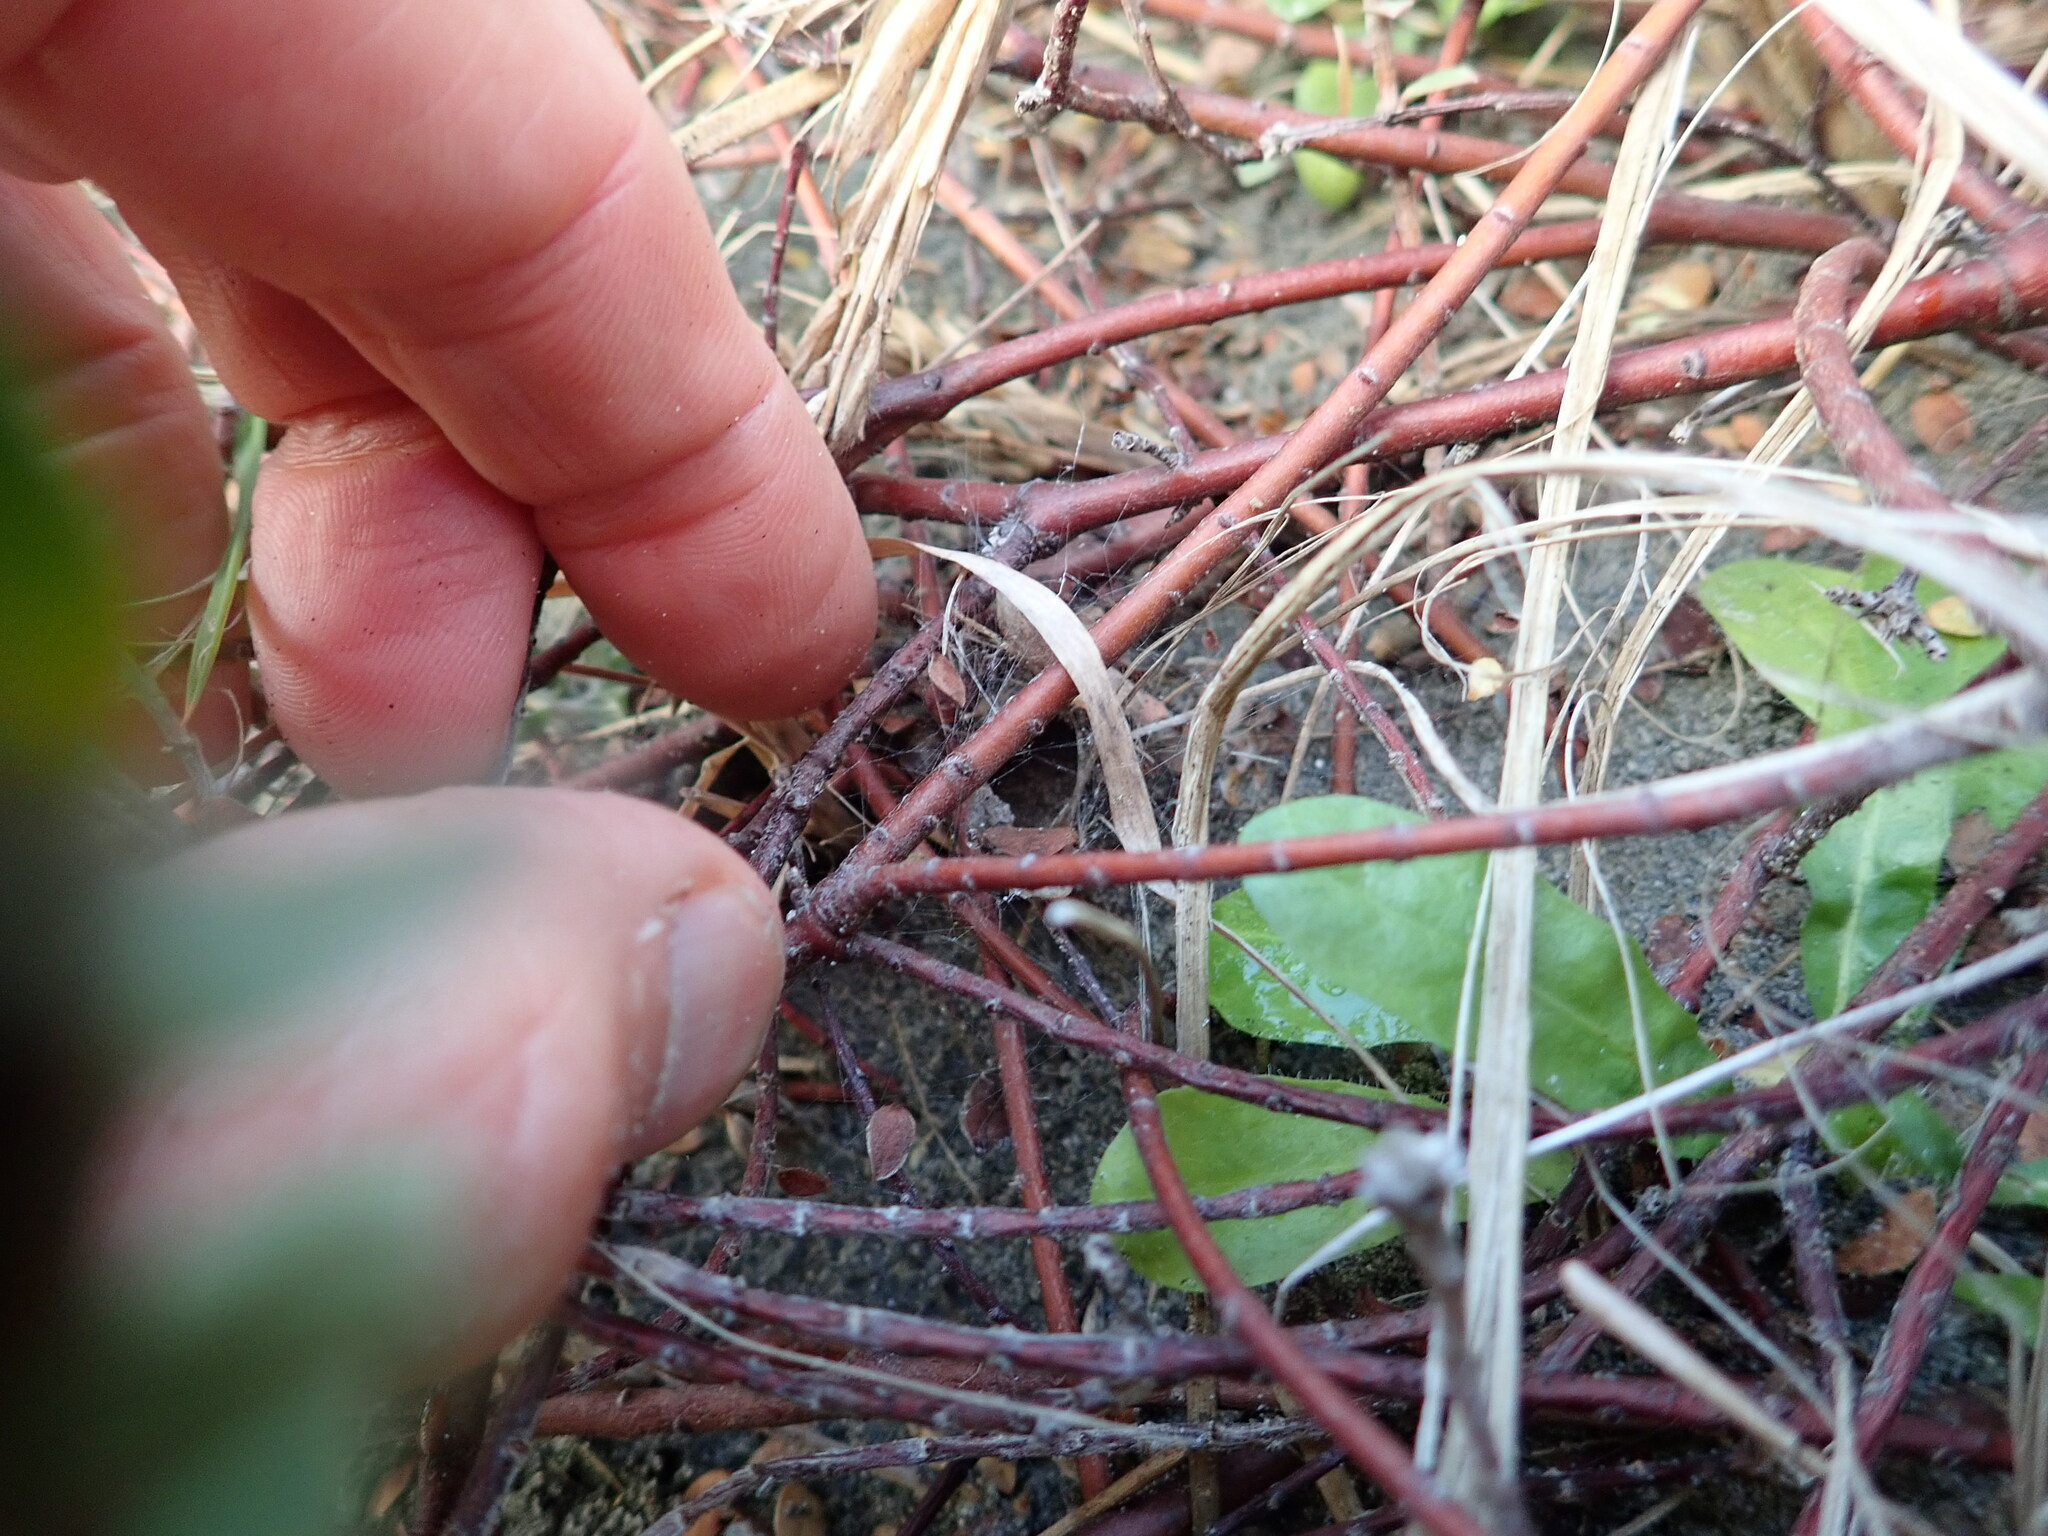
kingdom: Animalia
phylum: Arthropoda
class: Arachnida
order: Araneae
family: Theridiidae
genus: Latrodectus
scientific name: Latrodectus katipo
